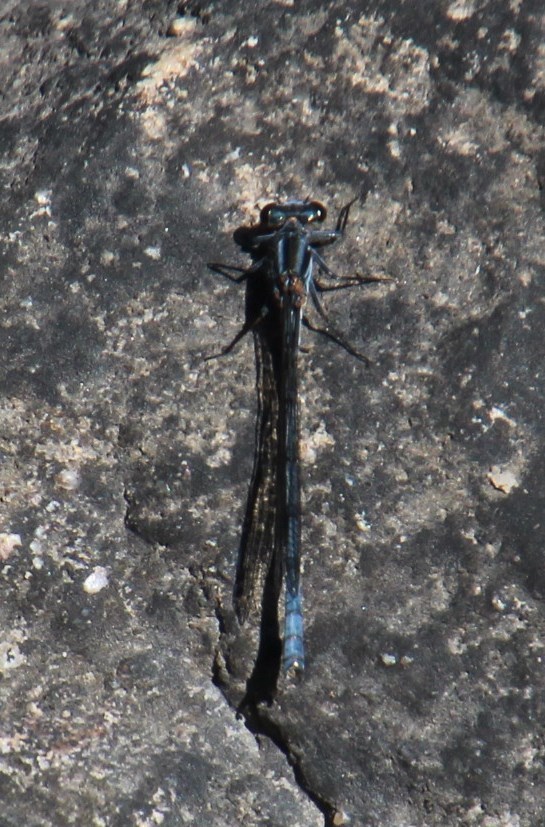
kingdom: Animalia
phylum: Arthropoda
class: Insecta
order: Odonata
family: Coenagrionidae
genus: Pseudagrion
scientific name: Pseudagrion furcigerum
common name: Palmiet sprite
